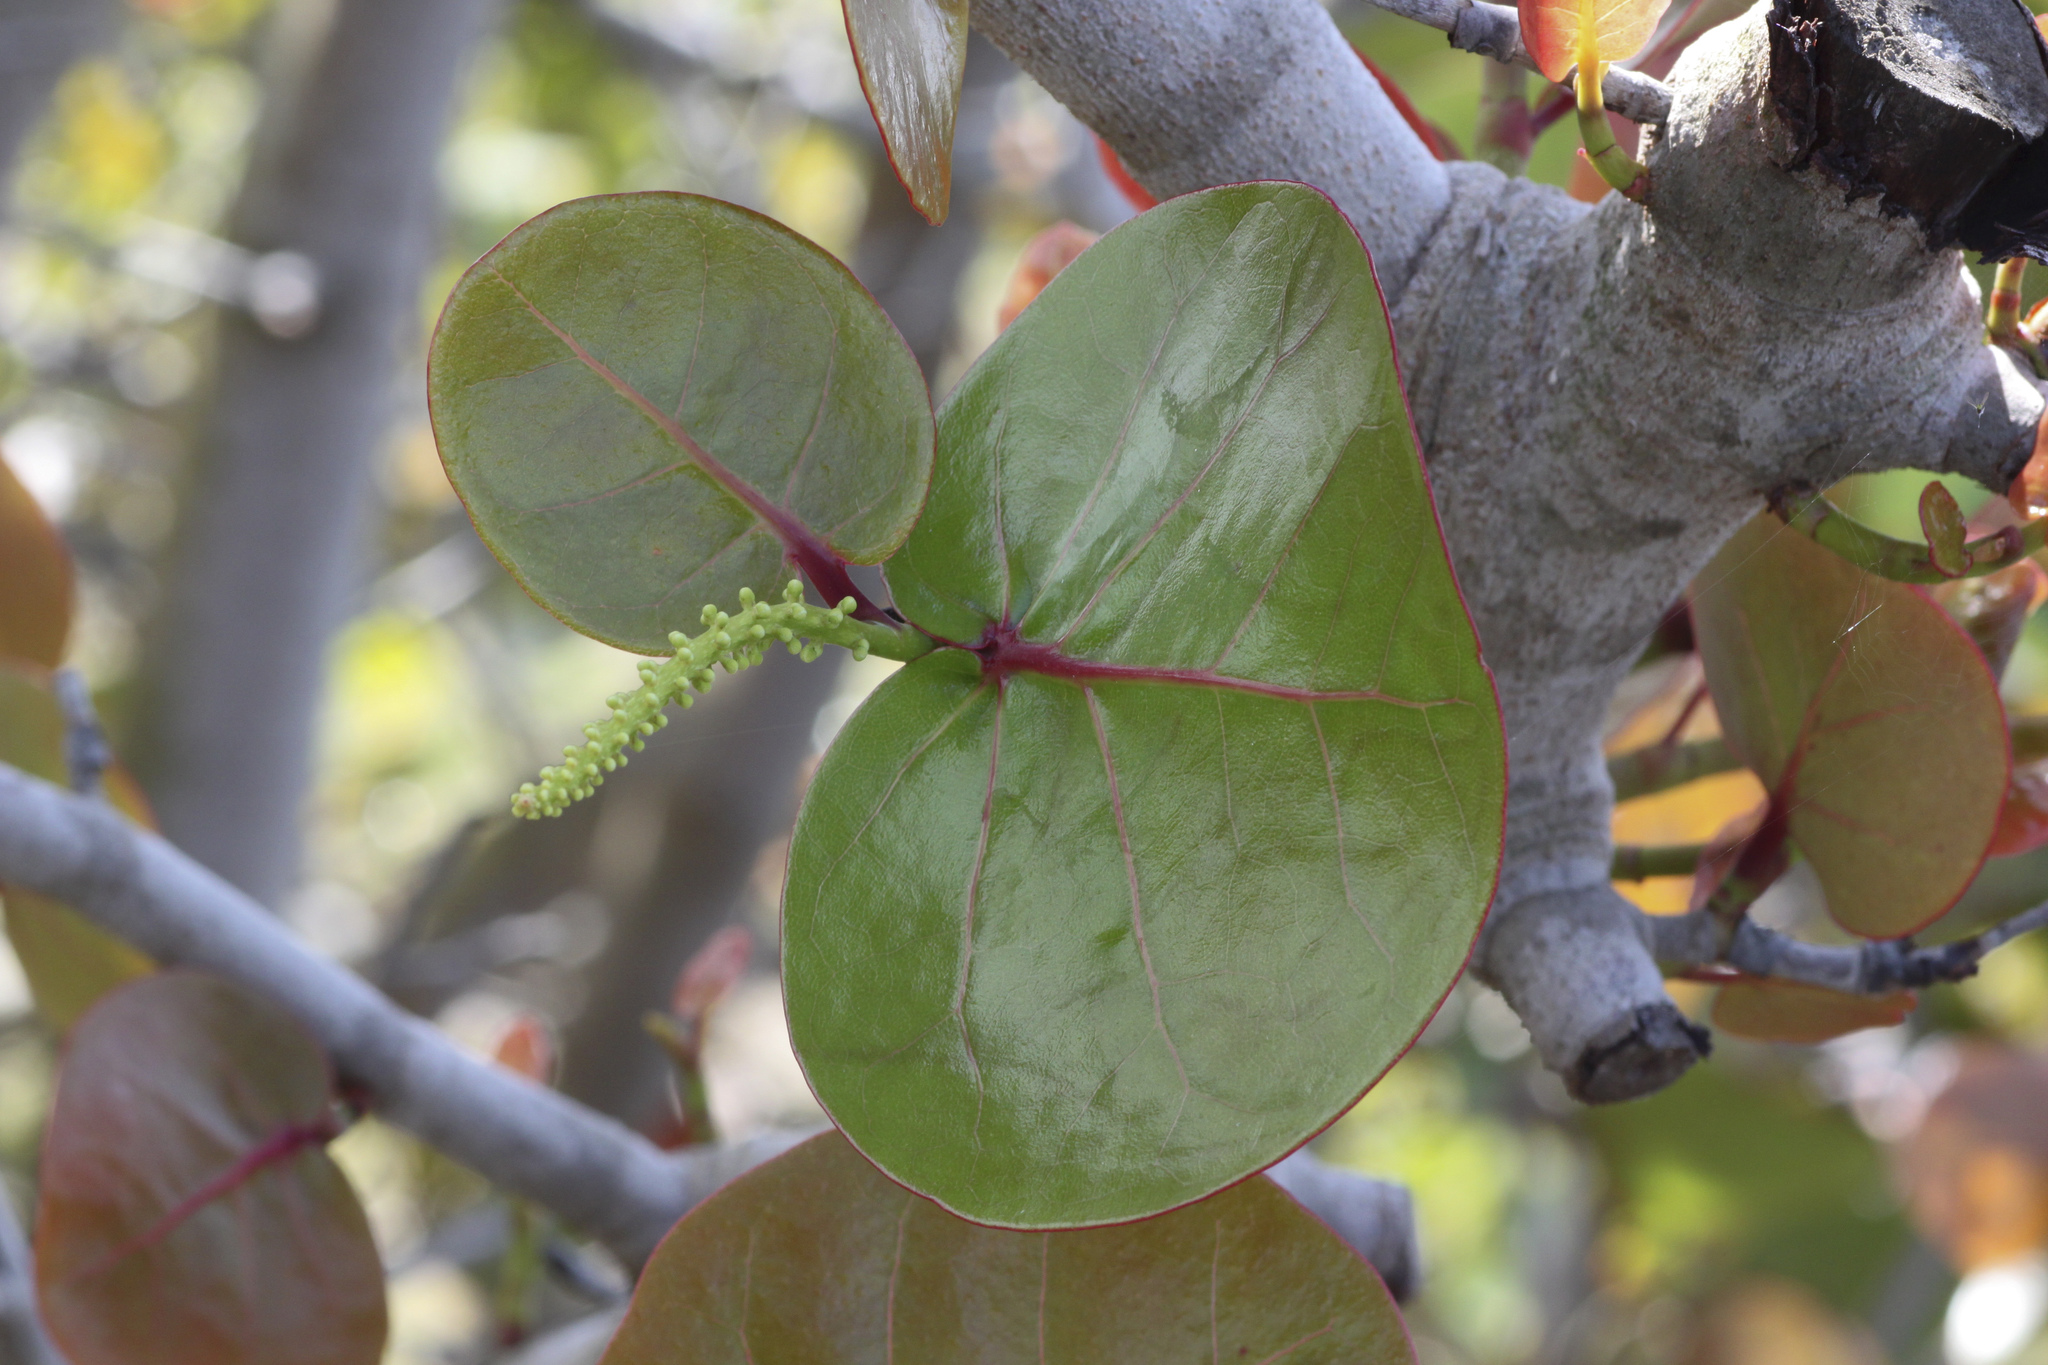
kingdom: Plantae
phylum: Tracheophyta
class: Magnoliopsida
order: Caryophyllales
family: Polygonaceae
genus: Coccoloba
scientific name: Coccoloba uvifera
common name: Seagrape
